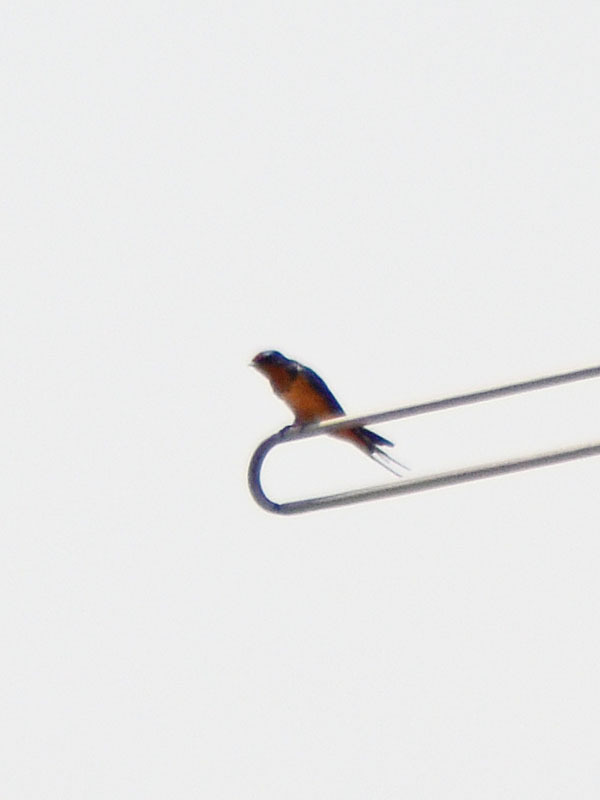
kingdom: Animalia
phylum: Chordata
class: Aves
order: Passeriformes
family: Hirundinidae
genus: Hirundo
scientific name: Hirundo rustica
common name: Barn swallow
